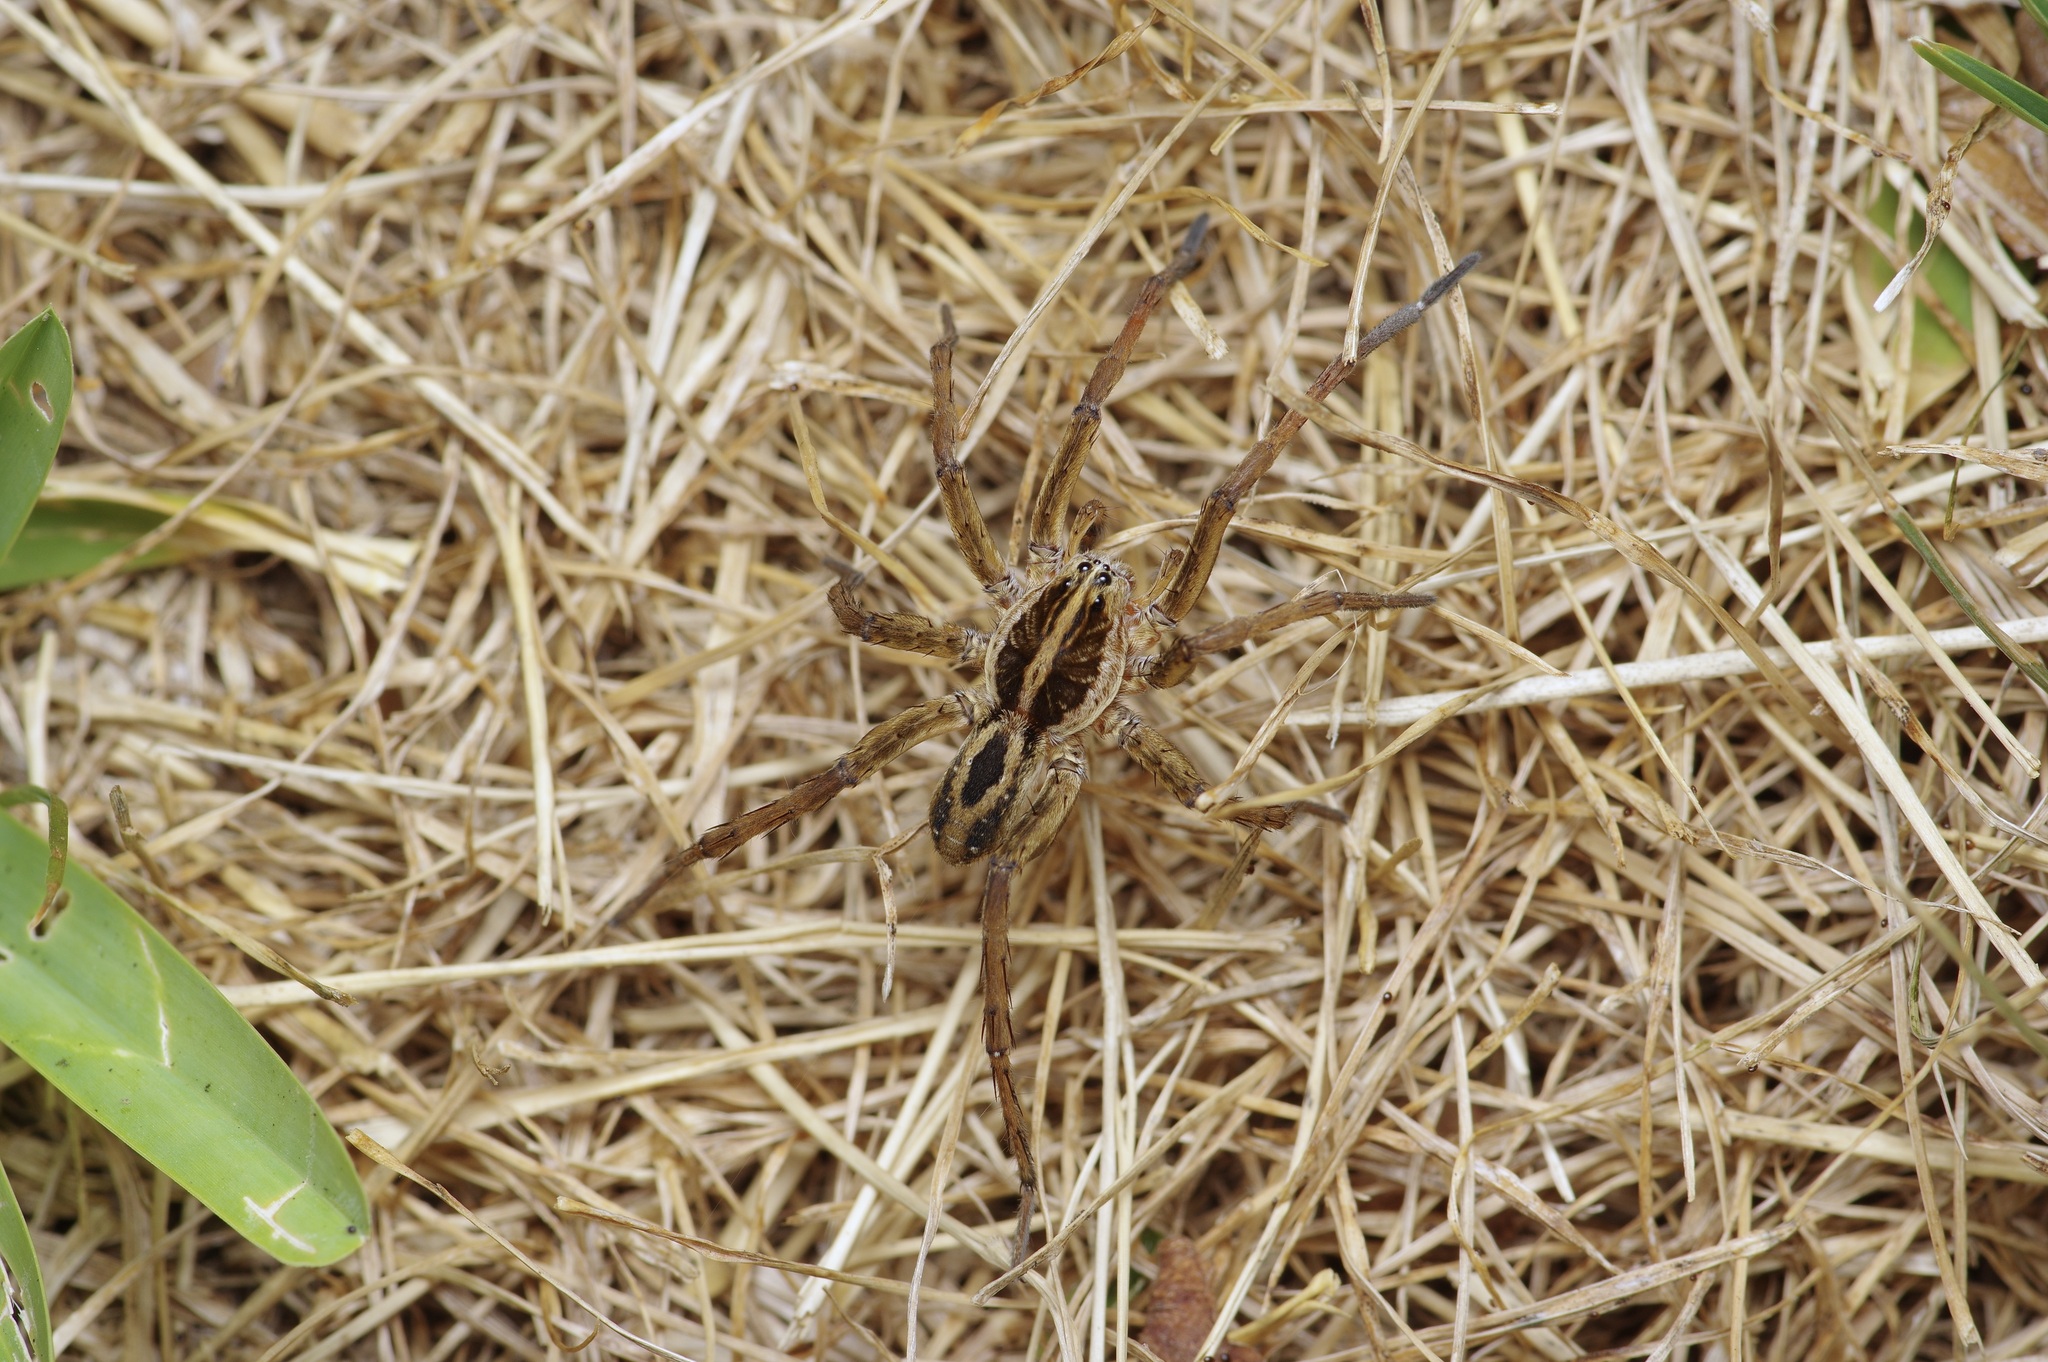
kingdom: Animalia
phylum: Arthropoda
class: Arachnida
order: Araneae
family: Lycosidae
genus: Tigrosa
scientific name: Tigrosa annexa
